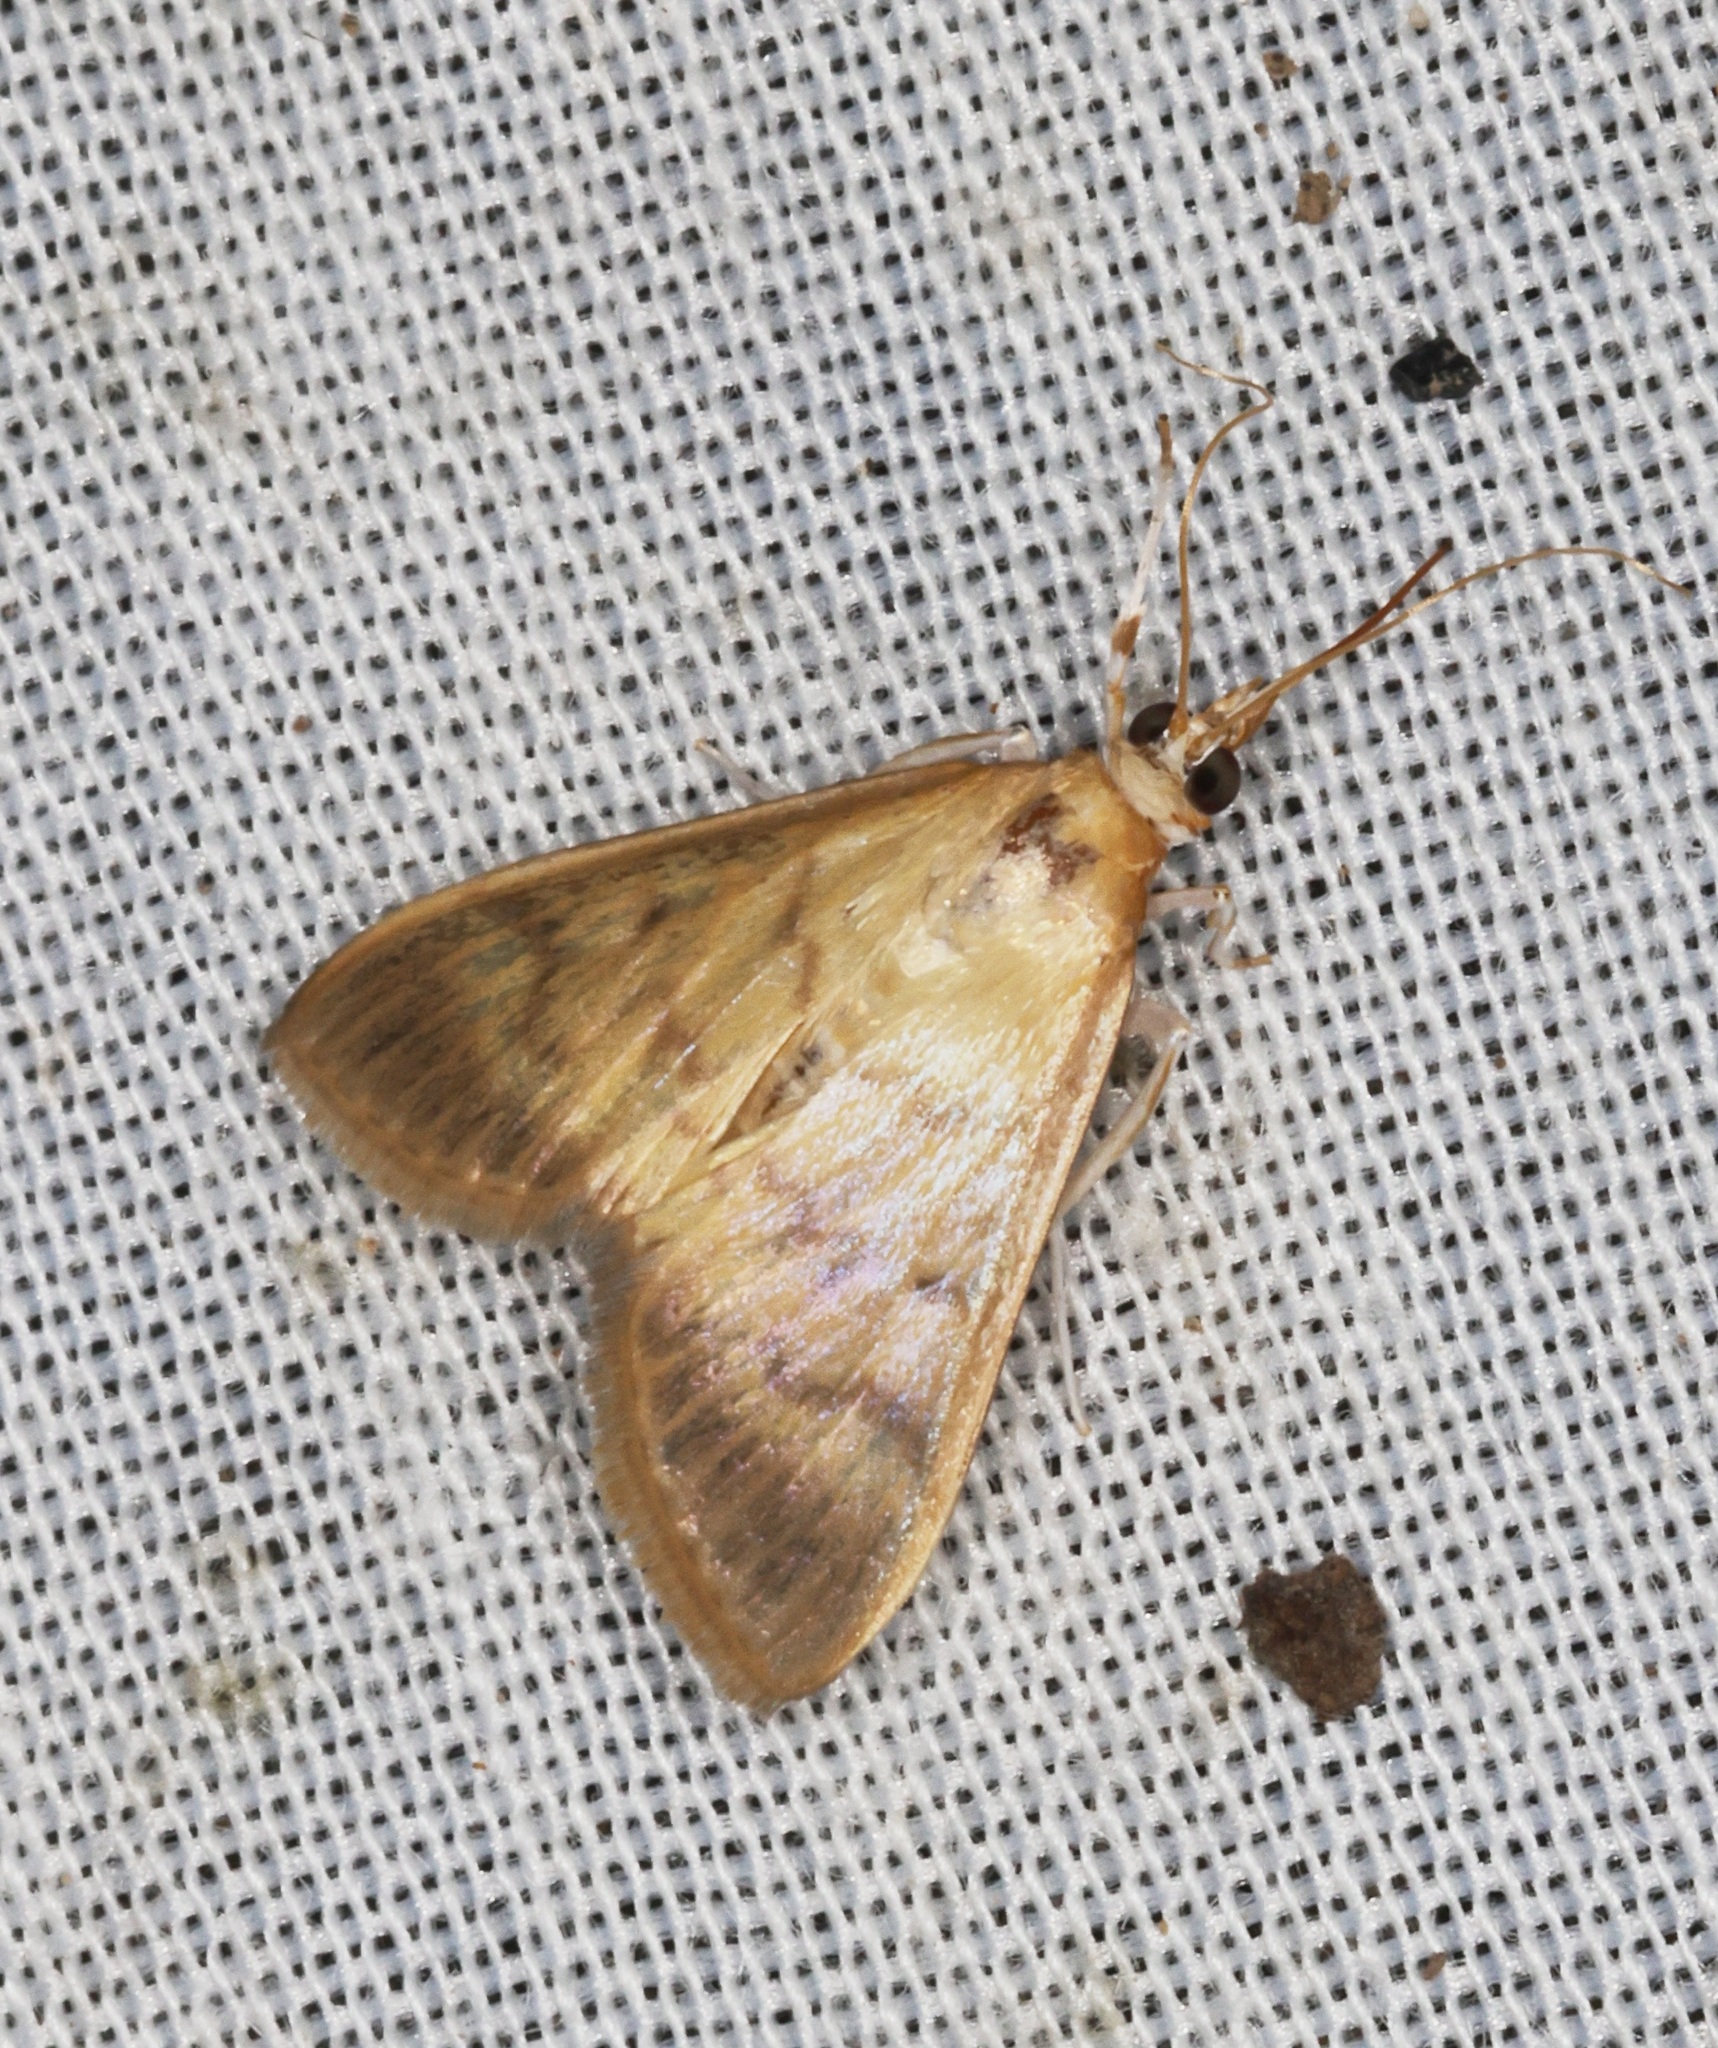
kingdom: Animalia
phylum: Arthropoda
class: Insecta
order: Lepidoptera
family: Crambidae
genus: Crypsiptya
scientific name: Crypsiptya coclesalis
